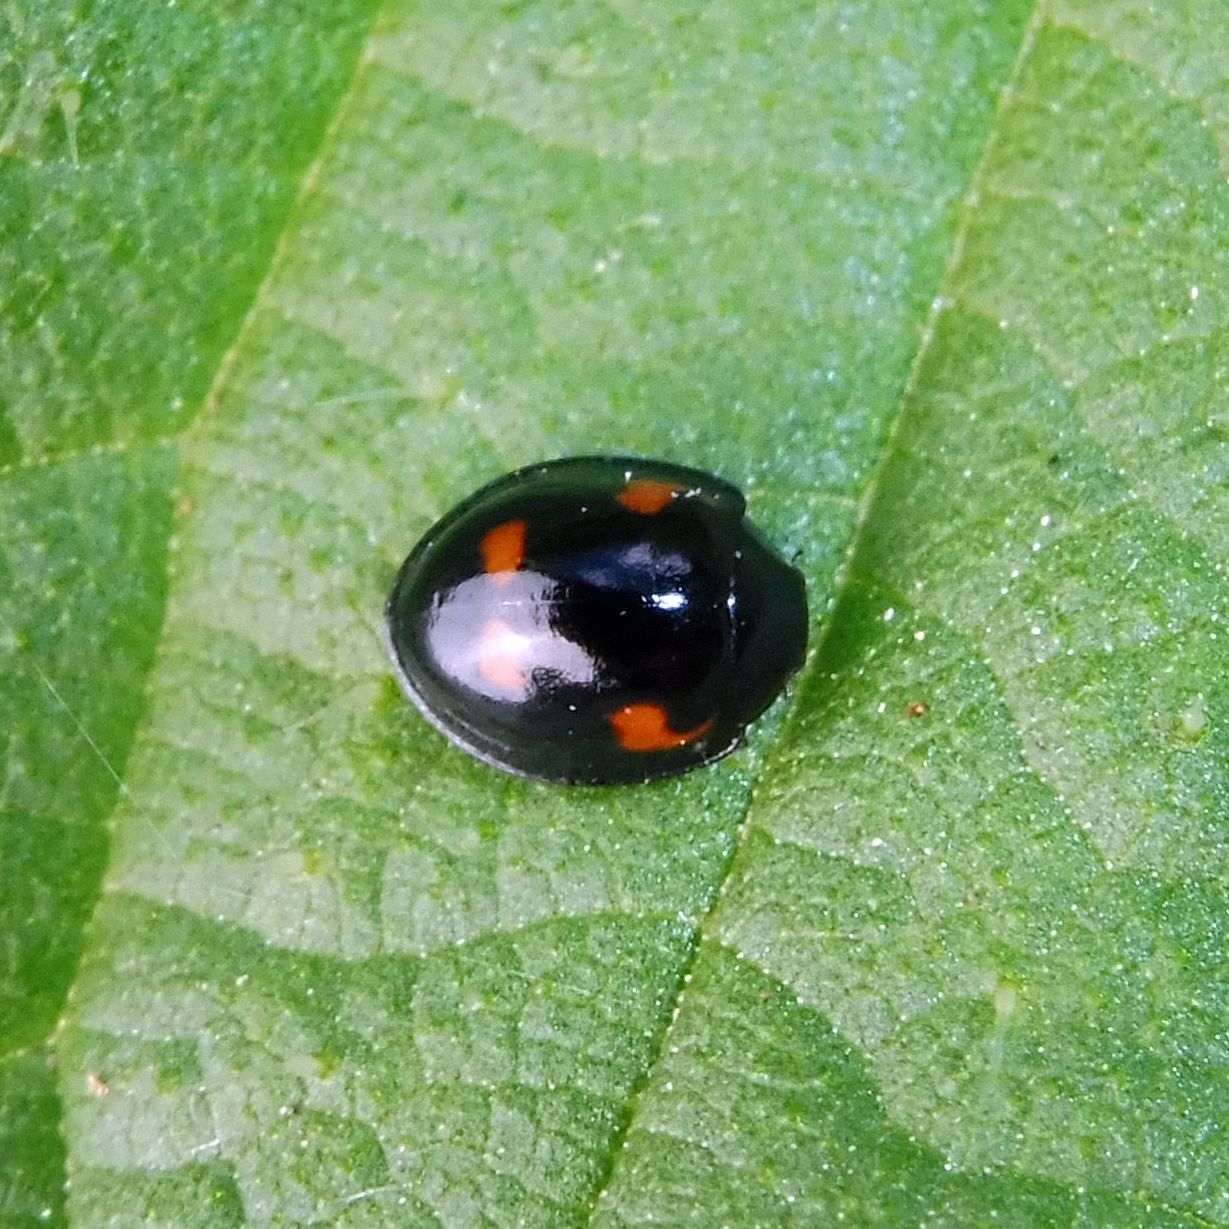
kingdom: Animalia
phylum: Arthropoda
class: Insecta
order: Coleoptera
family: Coccinellidae
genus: Brumus
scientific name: Brumus quadripustulatus
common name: Ladybird beetle
